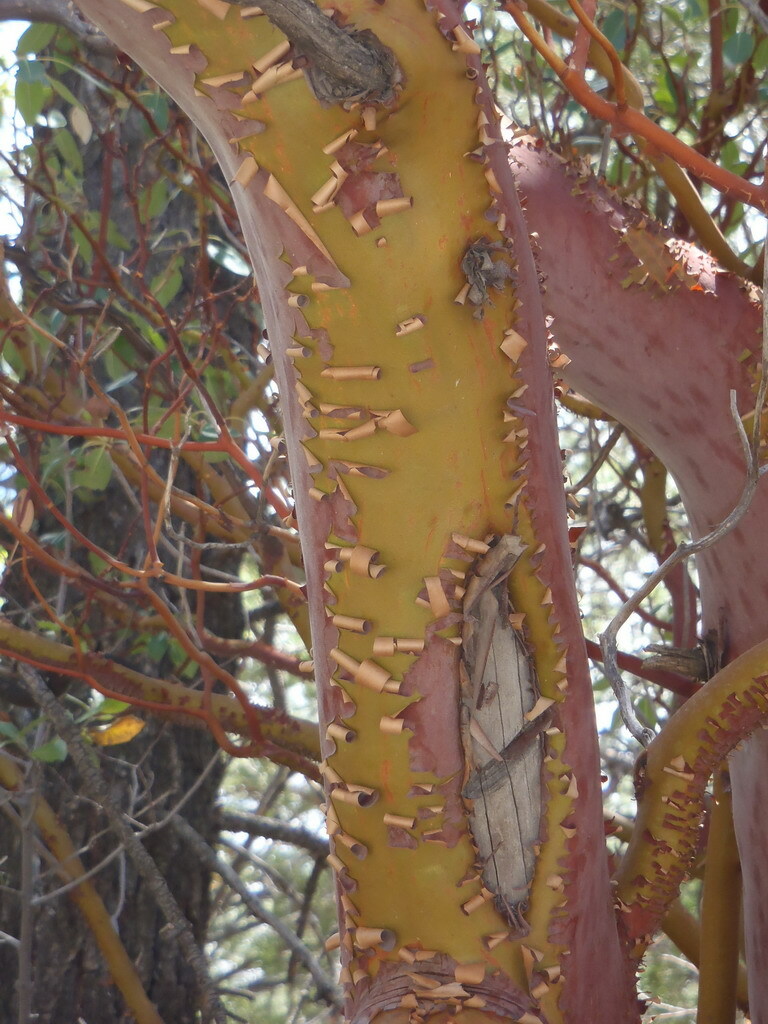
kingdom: Plantae
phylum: Tracheophyta
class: Magnoliopsida
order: Ericales
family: Ericaceae
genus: Arbutus
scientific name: Arbutus xalapensis
